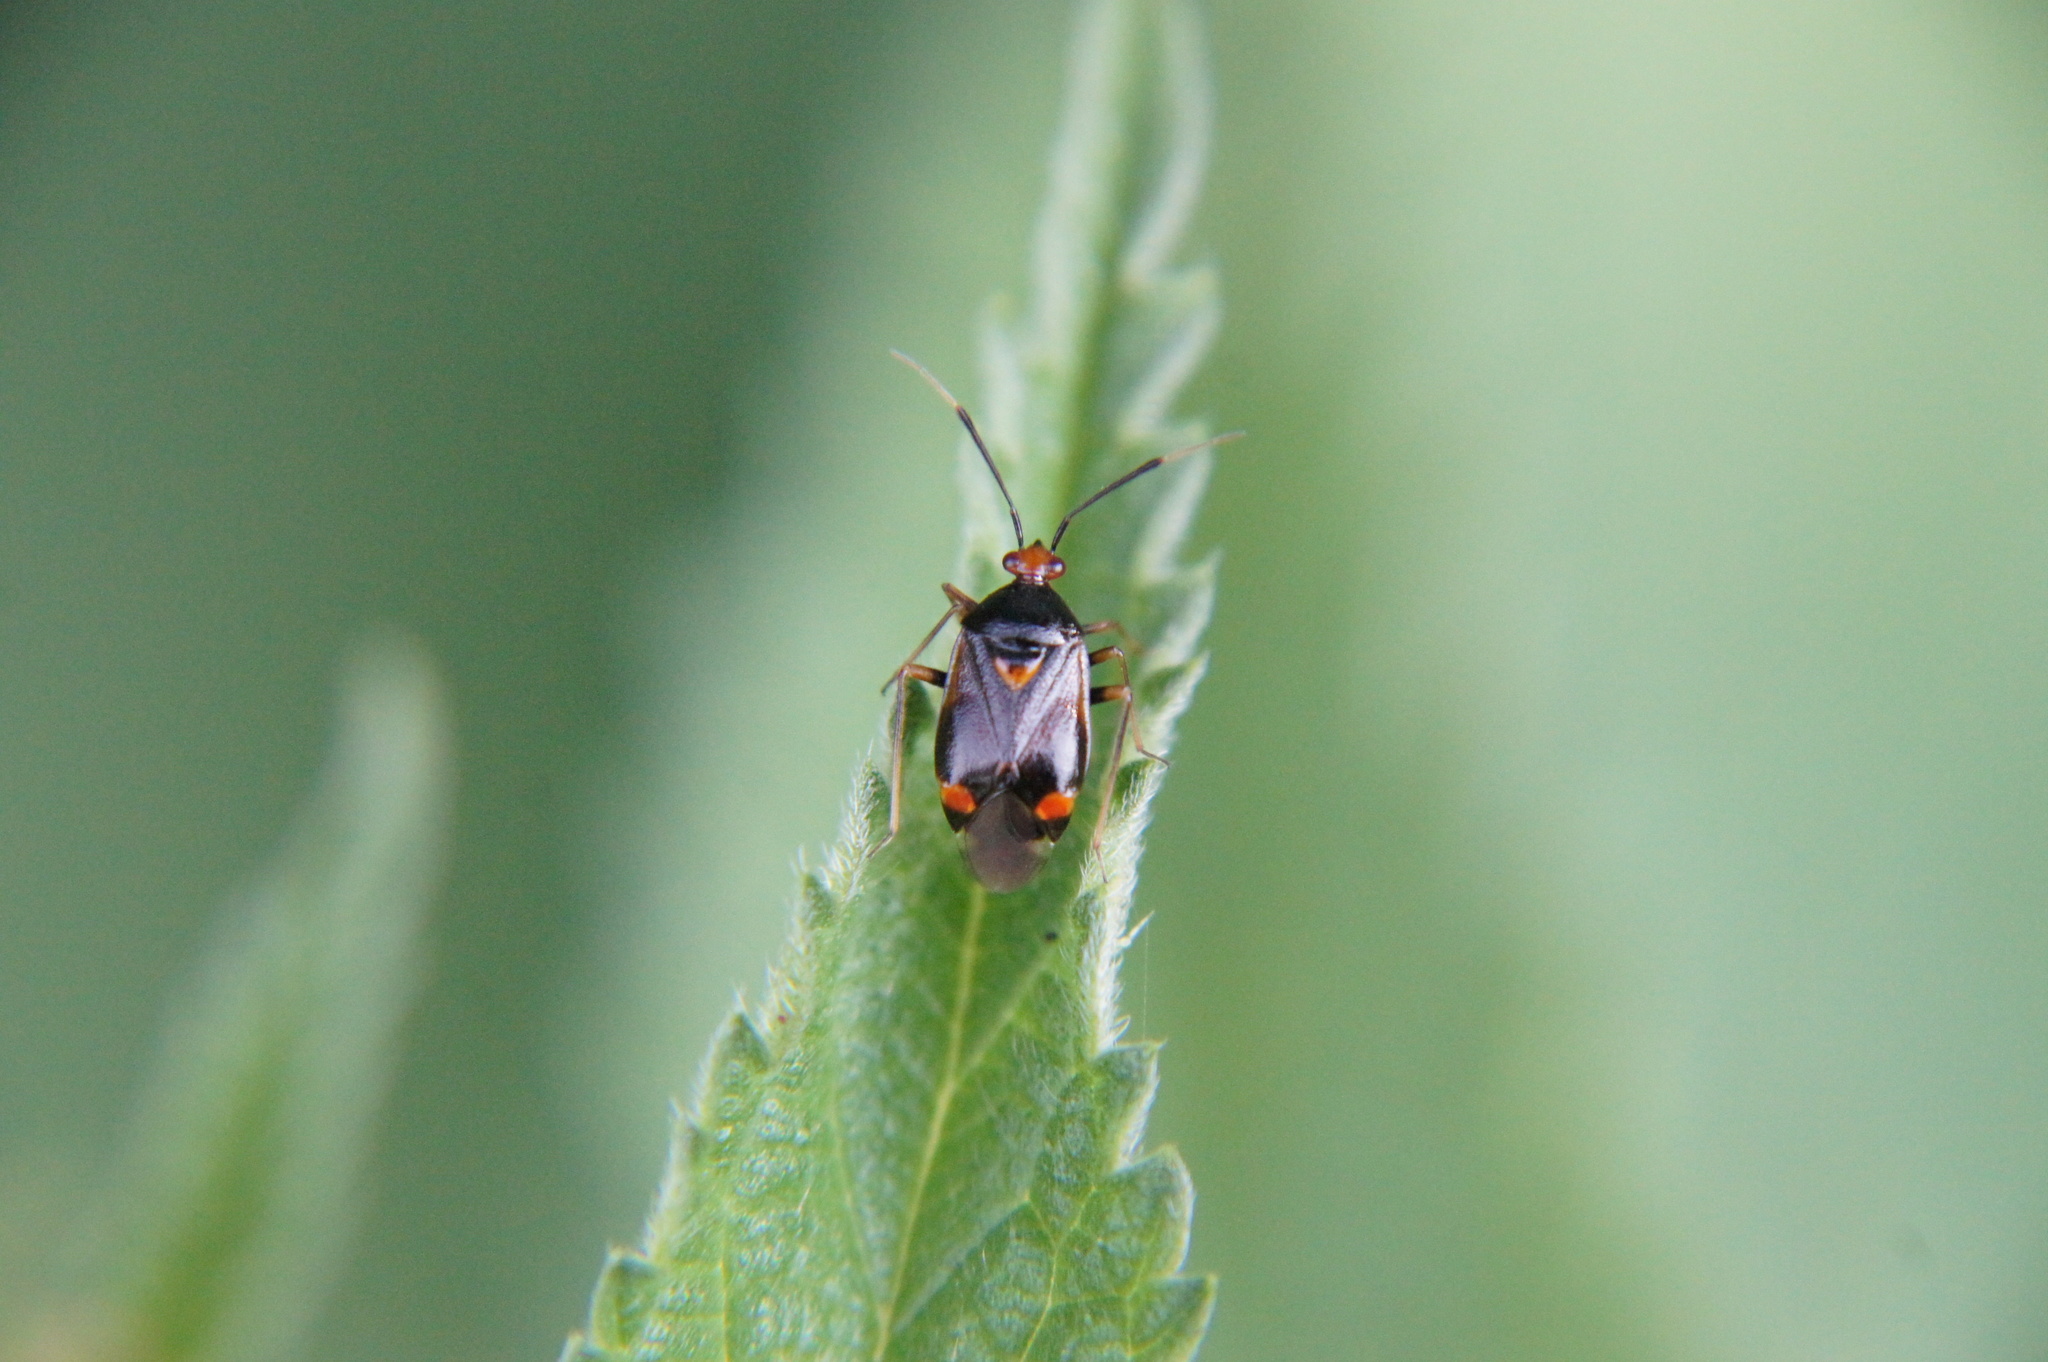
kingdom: Animalia
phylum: Arthropoda
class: Insecta
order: Hemiptera
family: Miridae
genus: Deraeocoris
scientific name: Deraeocoris ruber
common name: Plant bug
